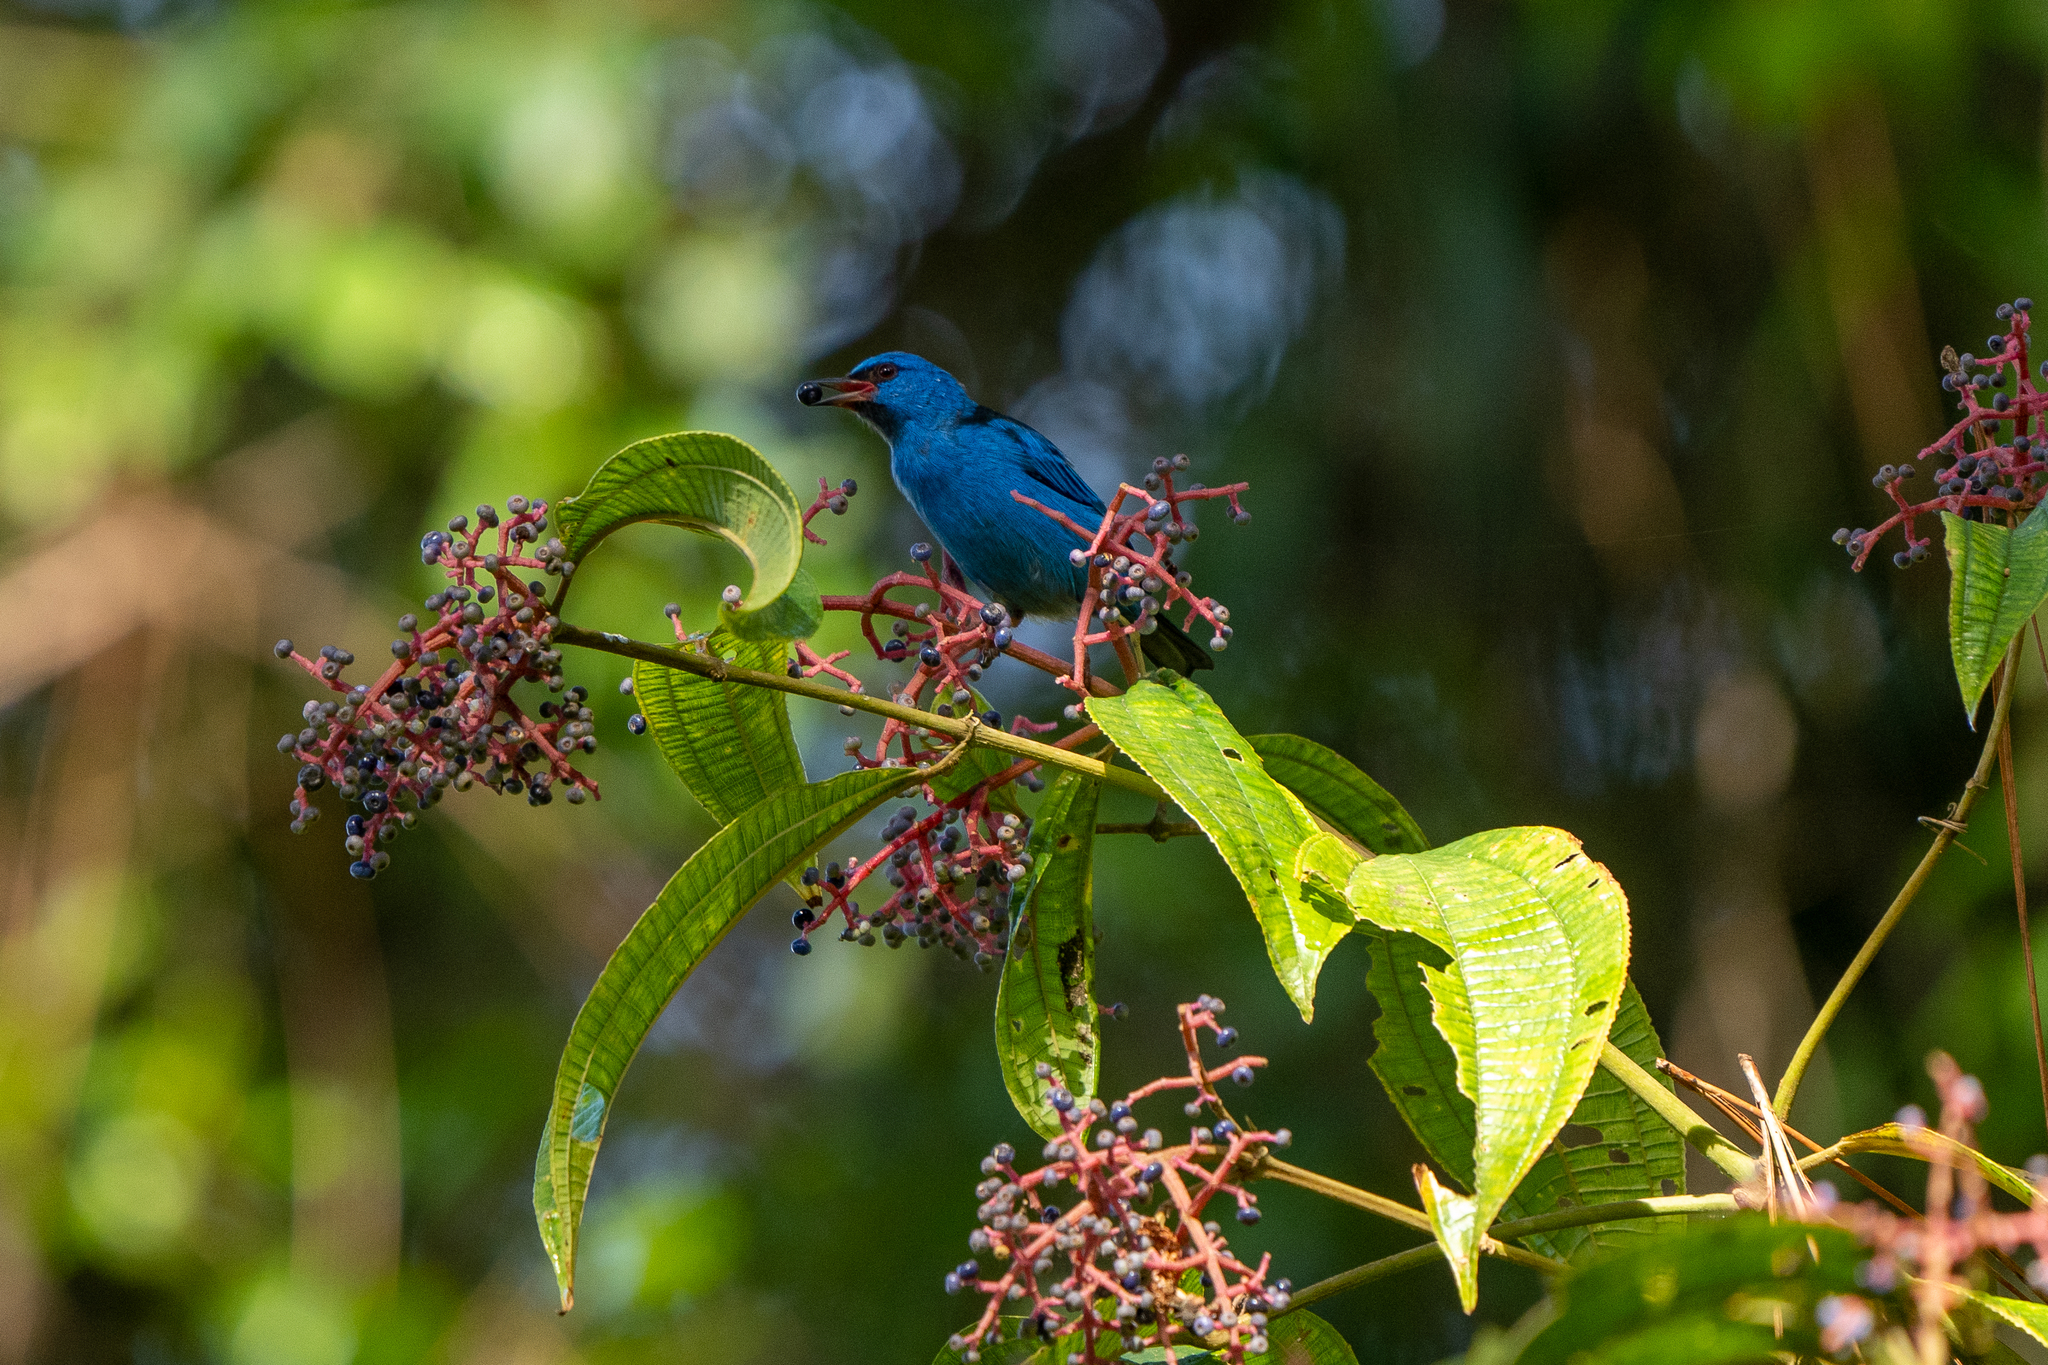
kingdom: Animalia
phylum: Chordata
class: Aves
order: Passeriformes
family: Thraupidae
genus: Dacnis
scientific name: Dacnis cayana
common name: Blue dacnis
